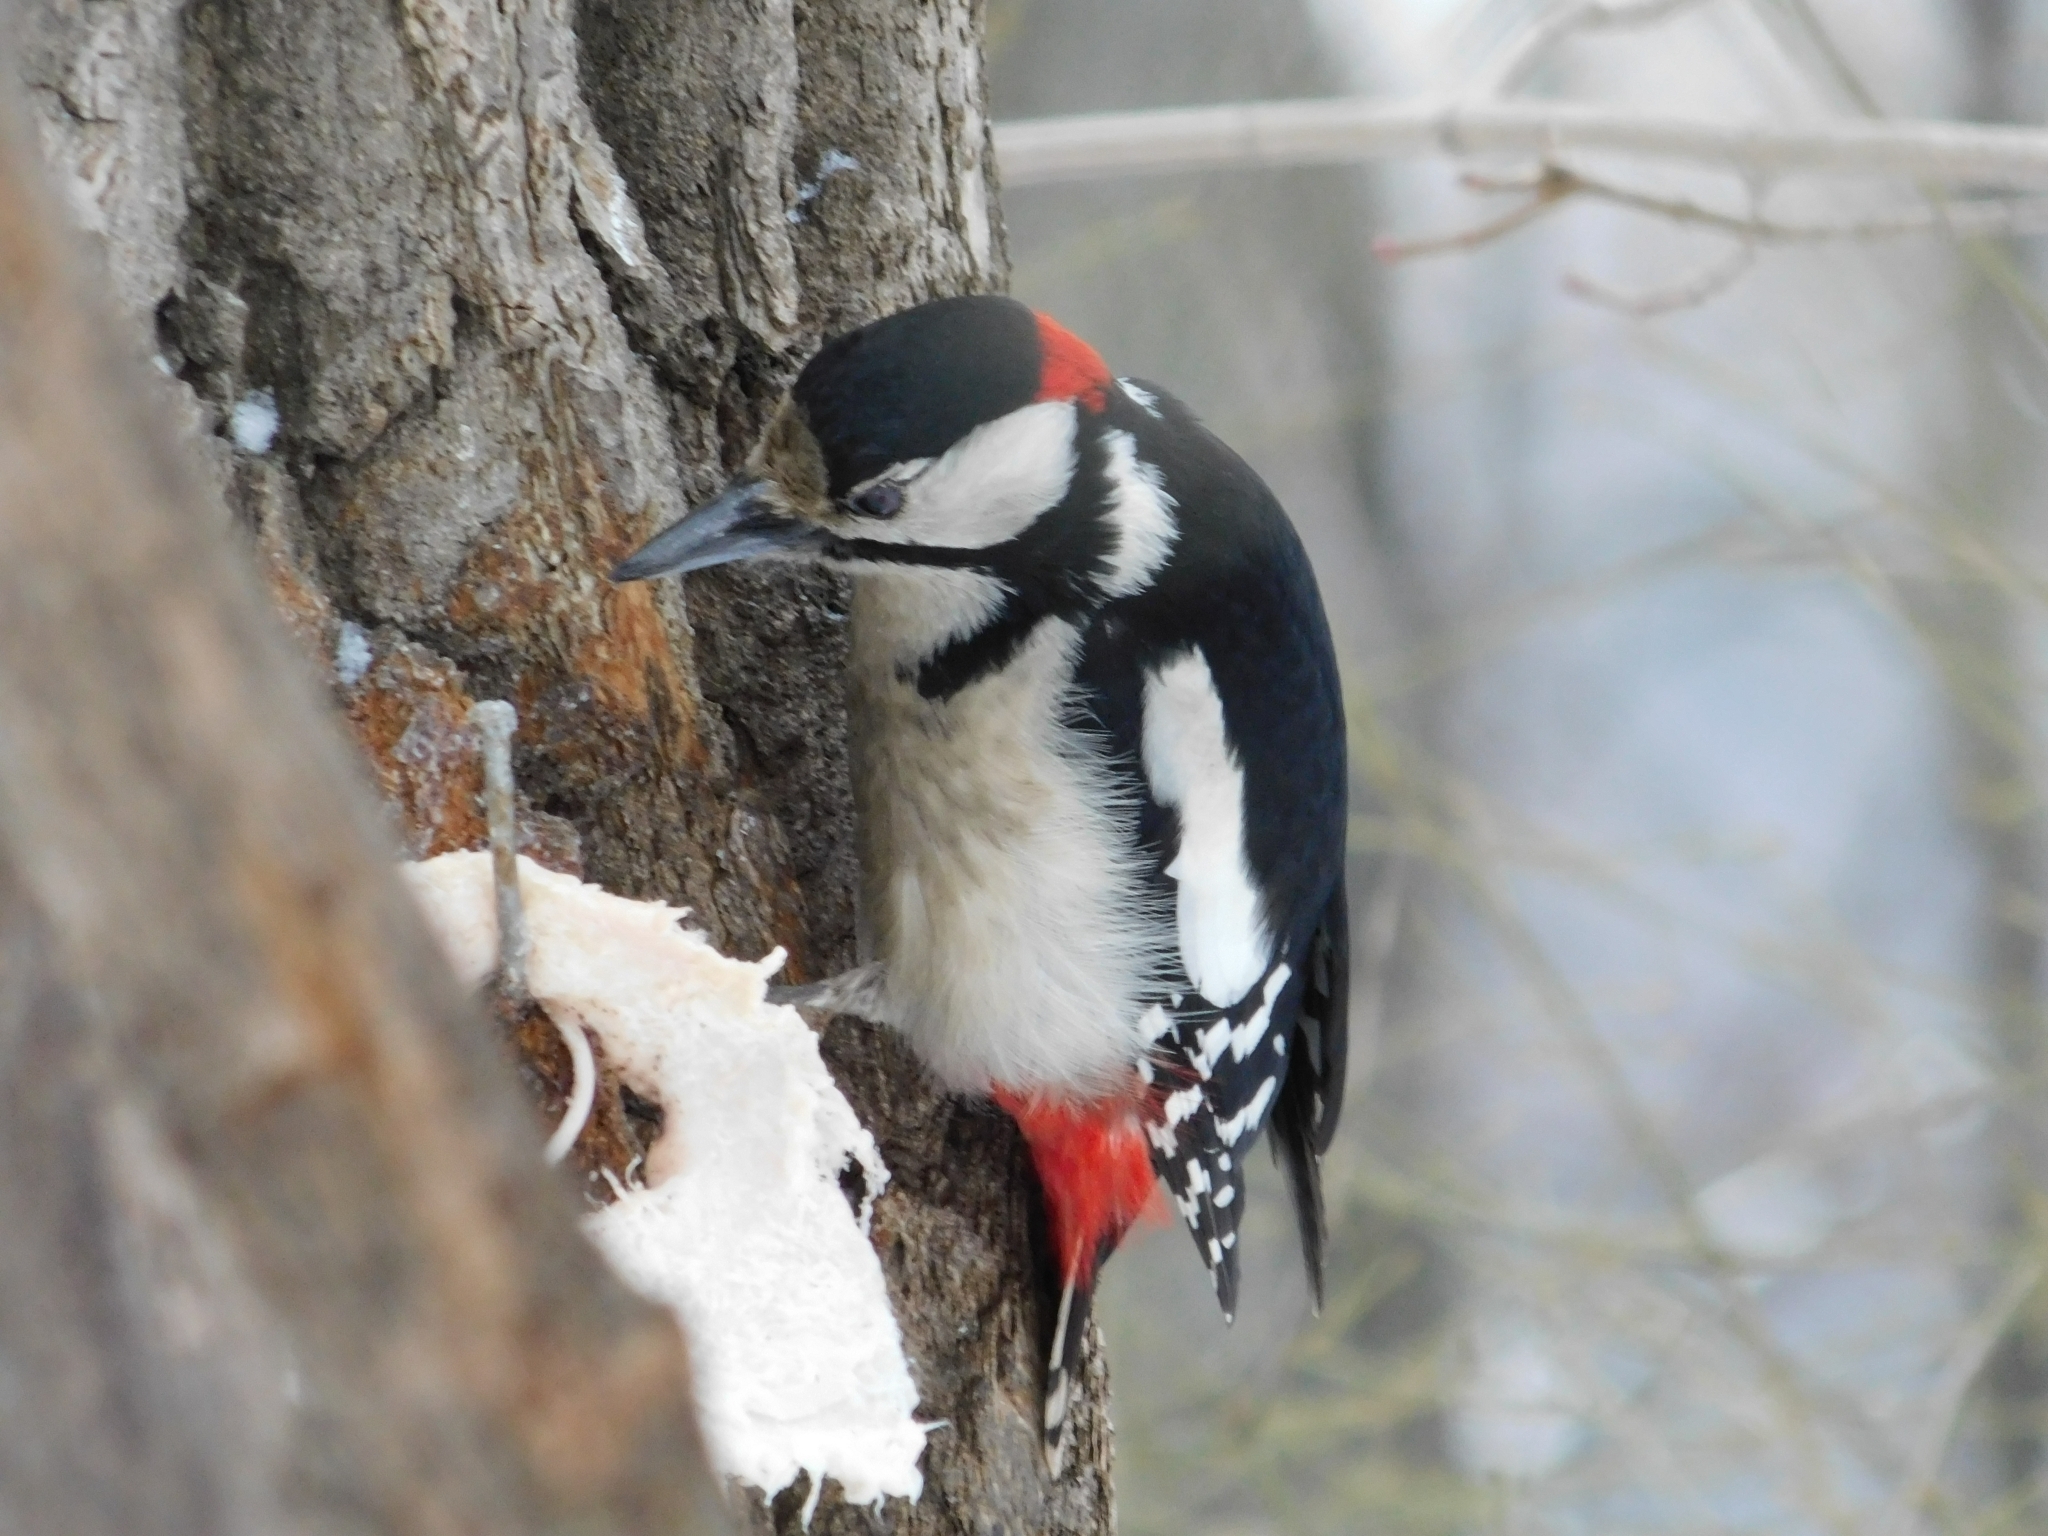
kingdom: Animalia
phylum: Chordata
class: Aves
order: Piciformes
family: Picidae
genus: Dendrocopos
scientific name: Dendrocopos major
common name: Great spotted woodpecker
